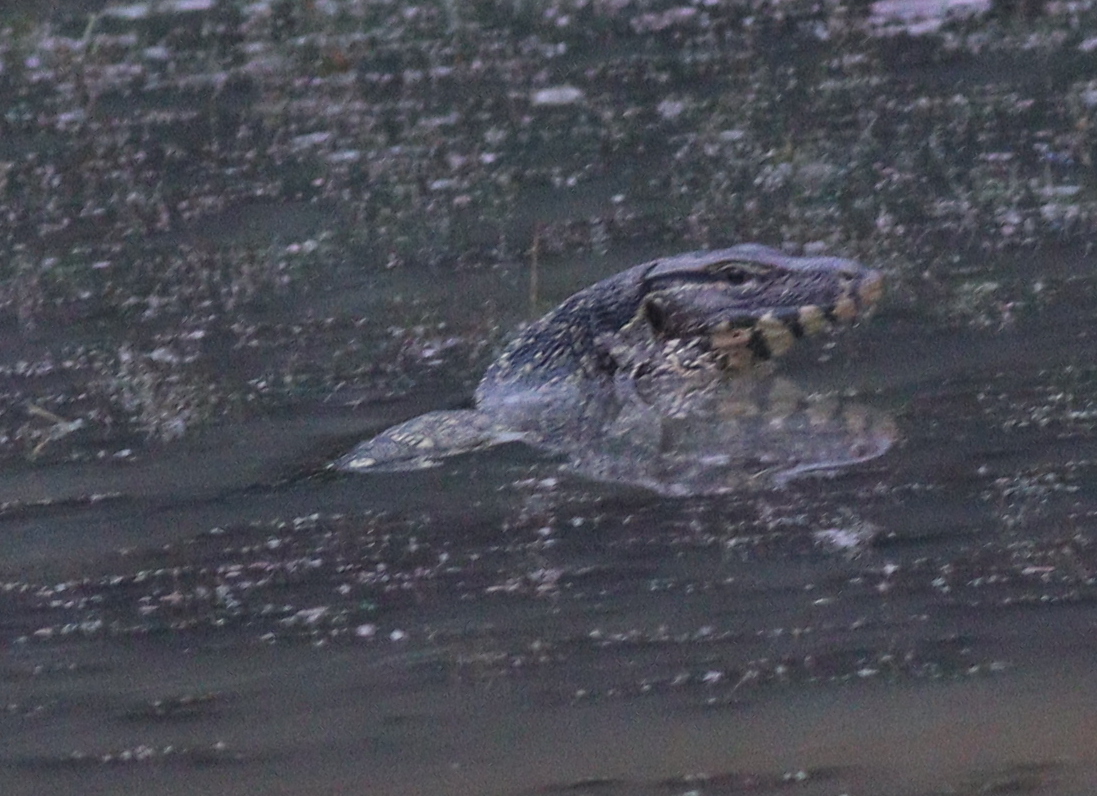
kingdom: Animalia
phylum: Chordata
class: Squamata
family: Varanidae
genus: Varanus
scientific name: Varanus salvator
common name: Common water monitor
